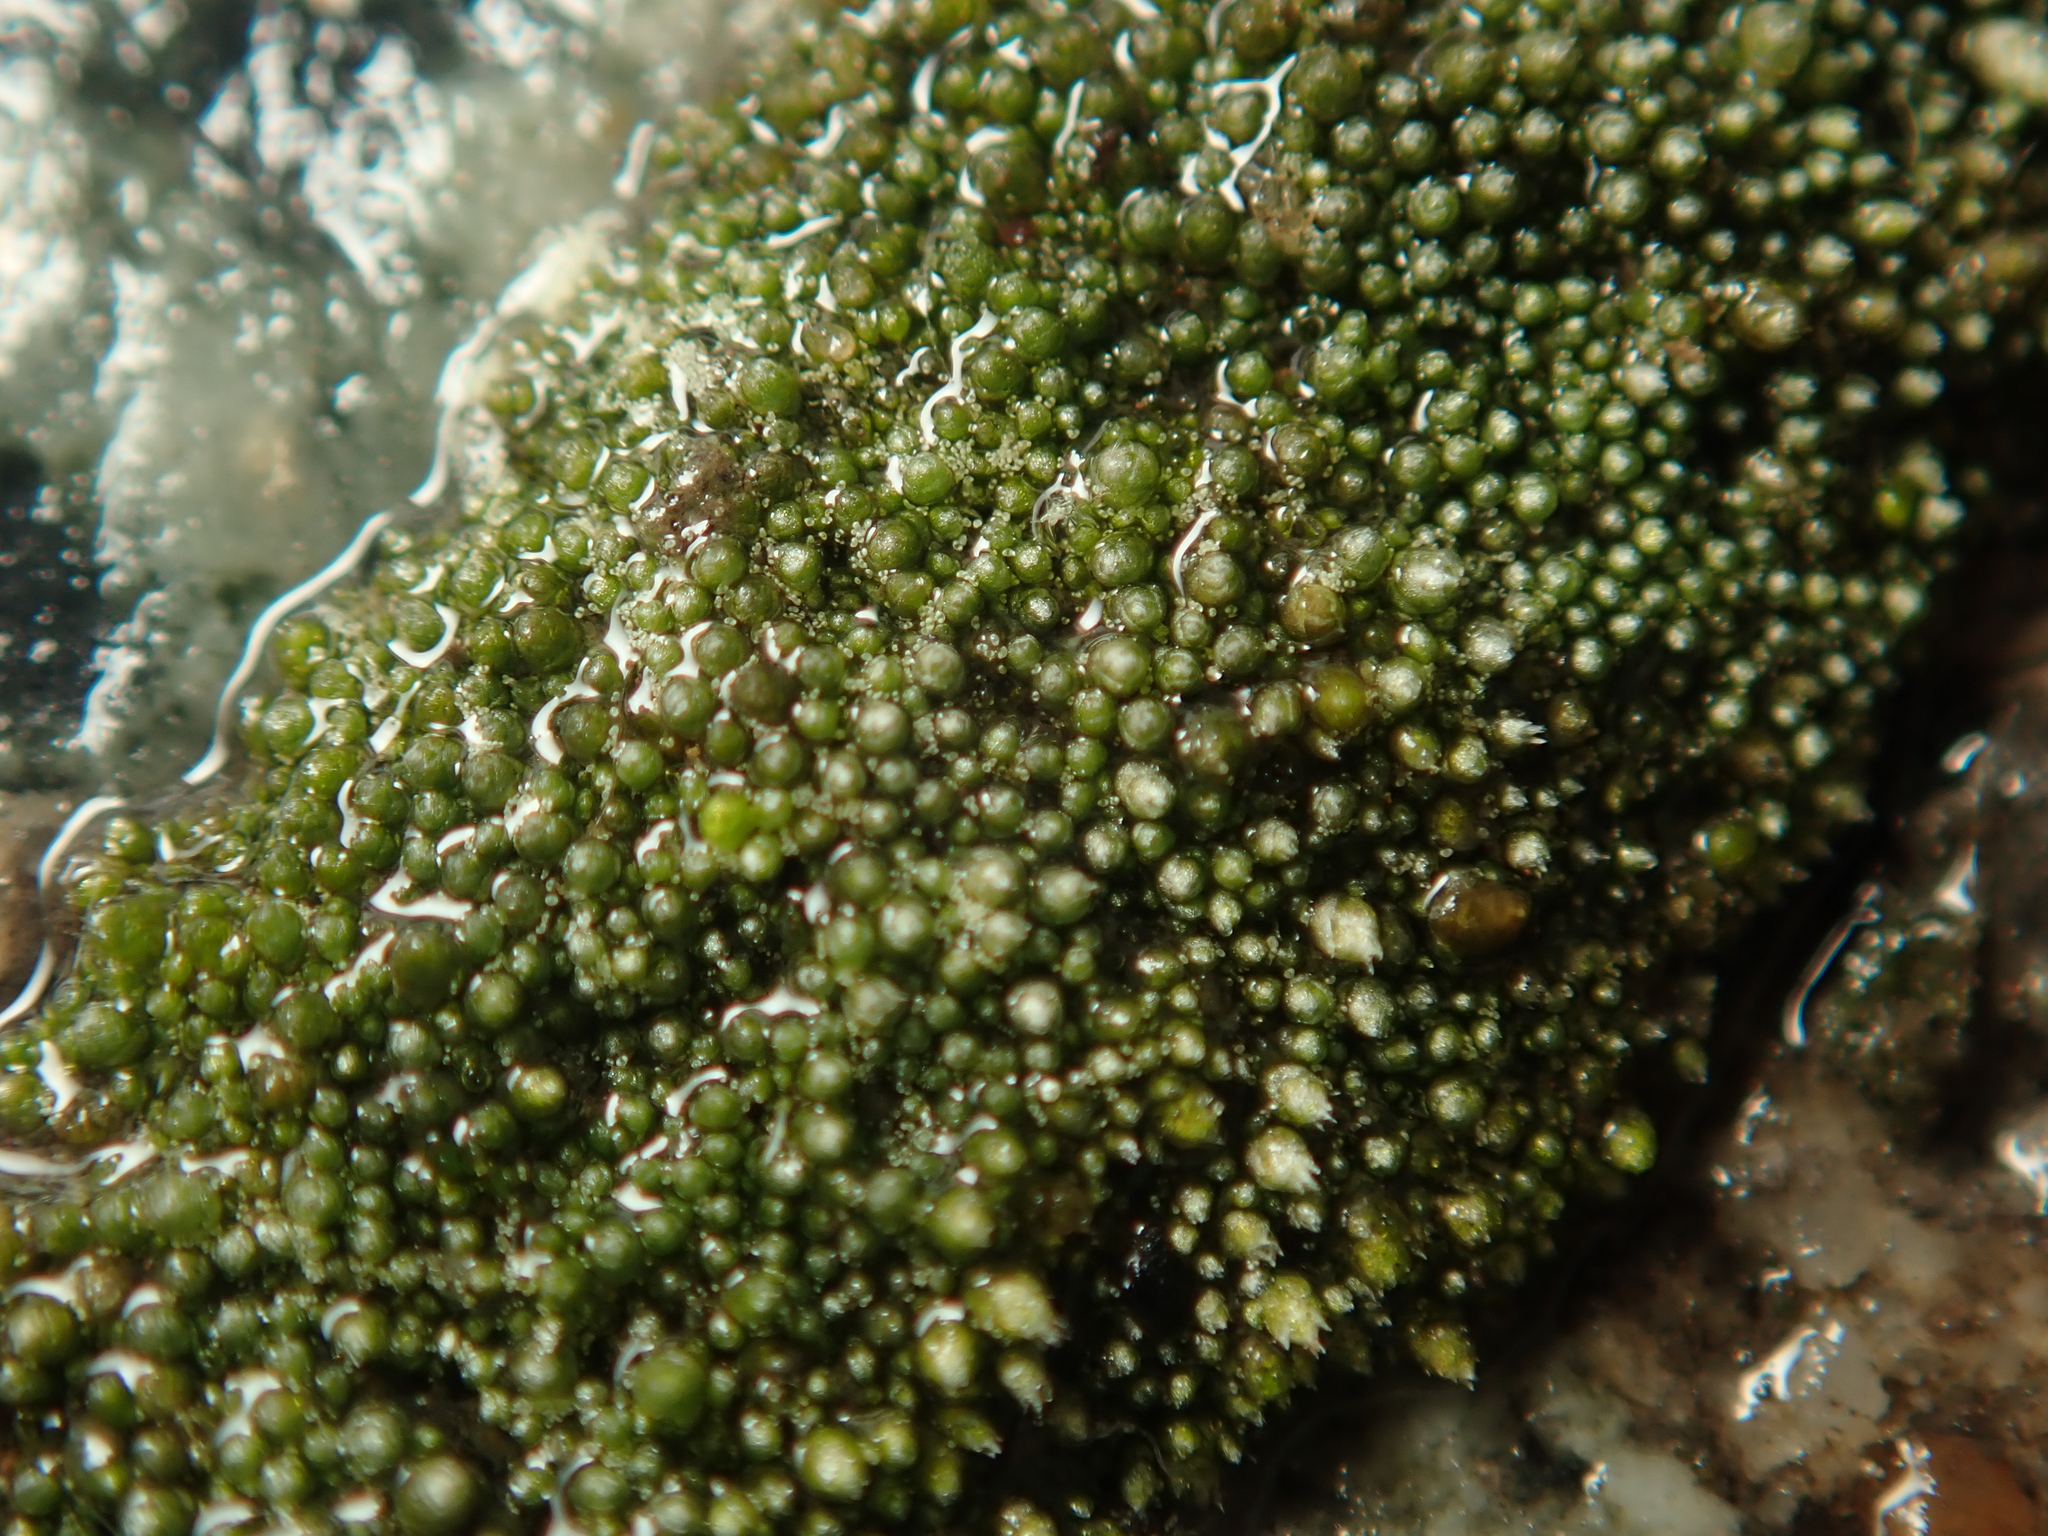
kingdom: Plantae
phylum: Bryophyta
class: Bryopsida
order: Bryales
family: Bryaceae
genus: Bryum
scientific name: Bryum argenteum
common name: Silver-moss
